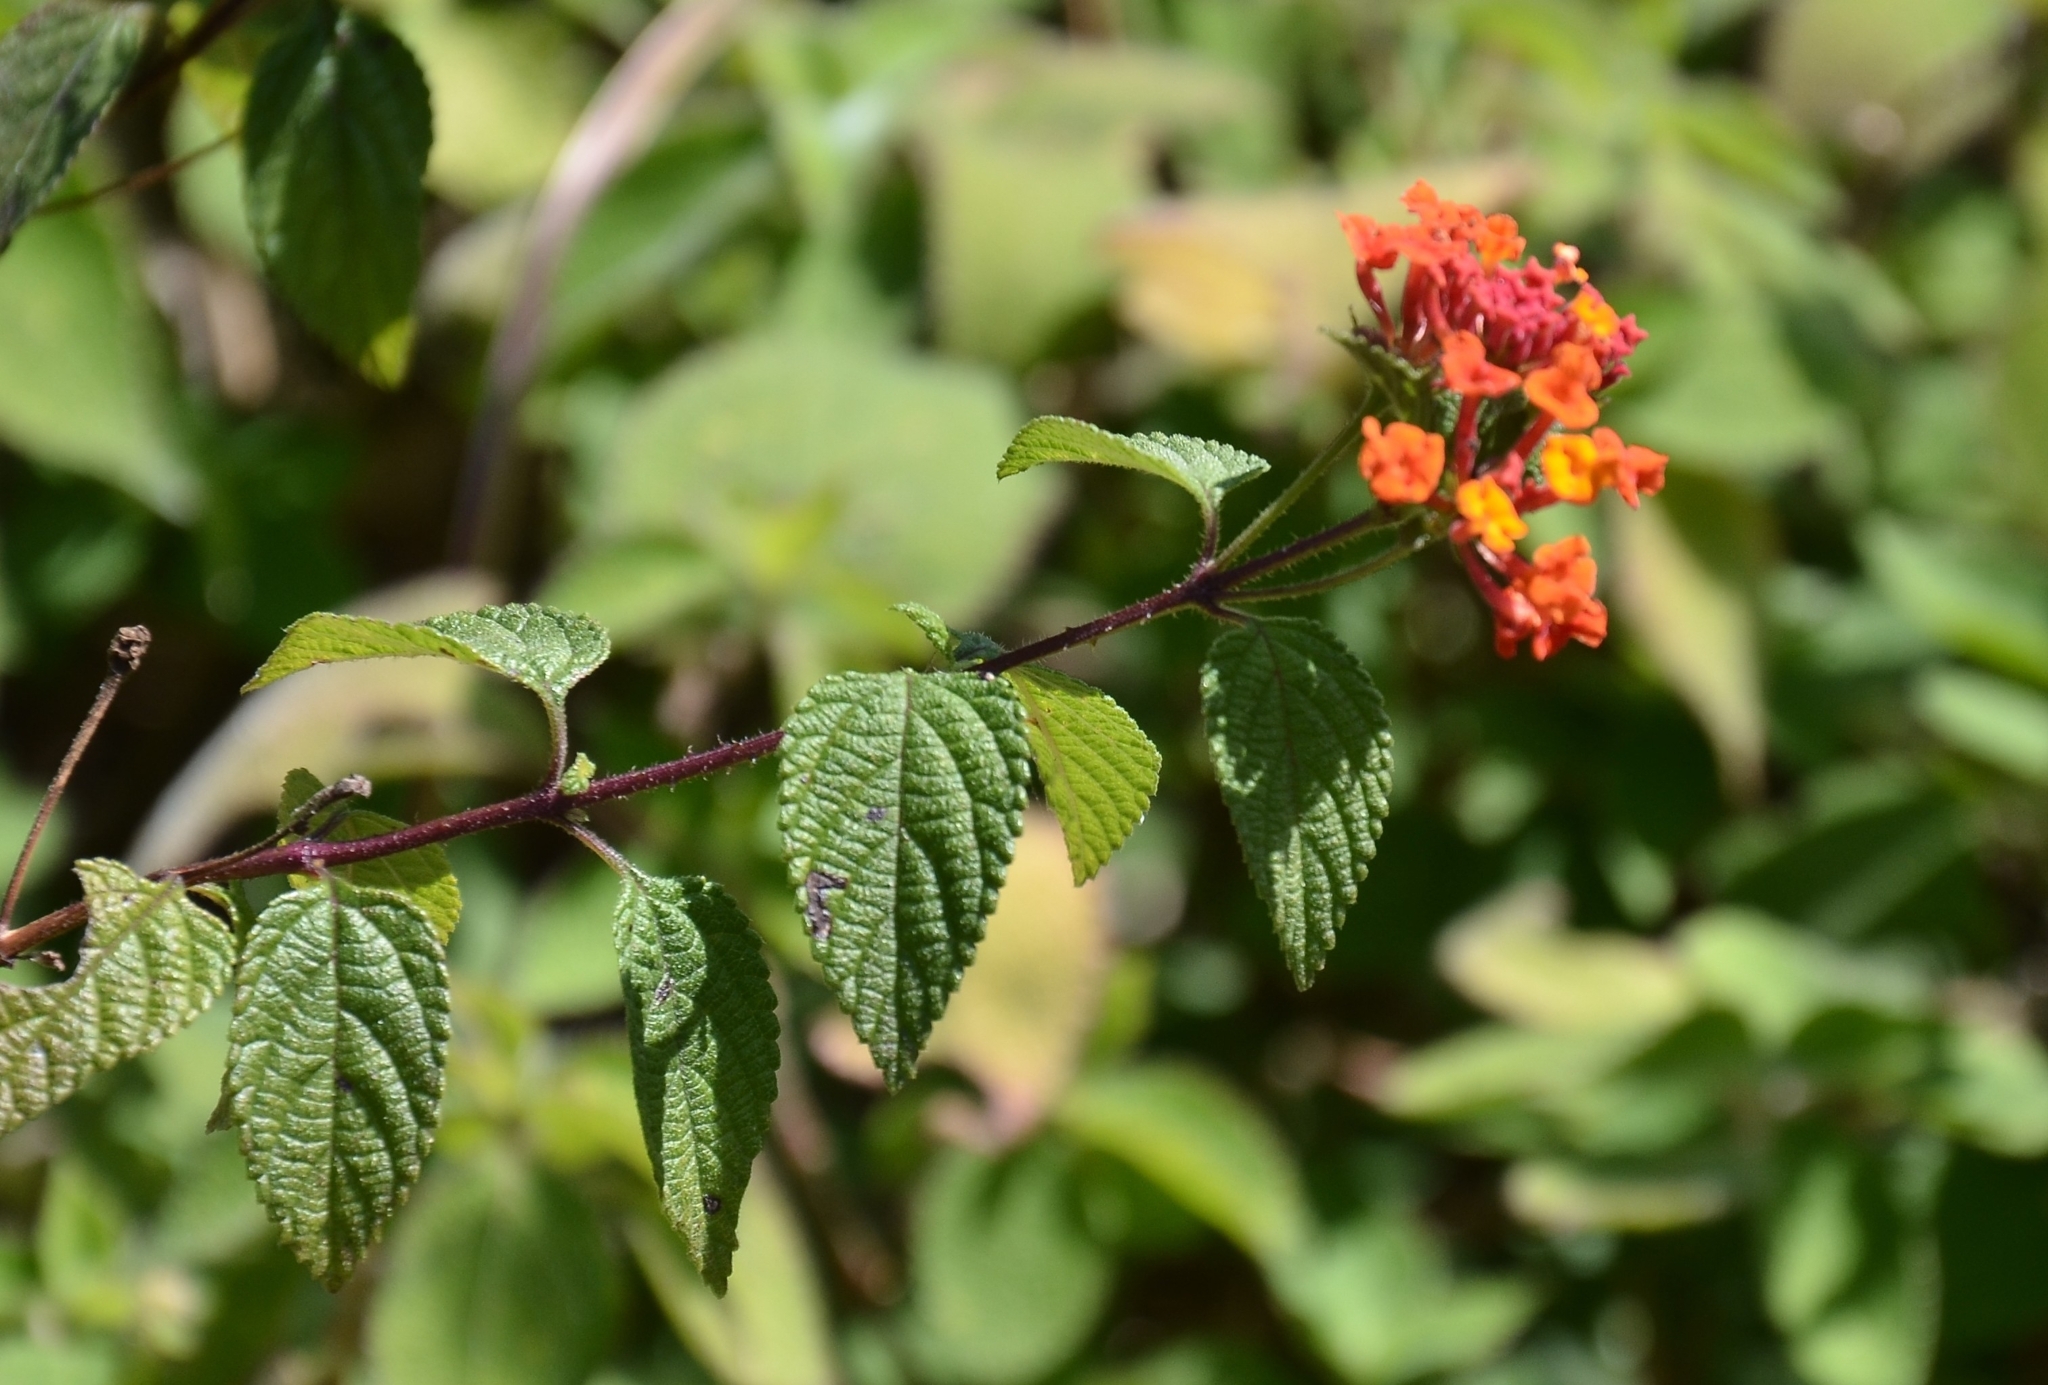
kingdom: Plantae
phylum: Tracheophyta
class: Magnoliopsida
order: Lamiales
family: Verbenaceae
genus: Lantana
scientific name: Lantana camara
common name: Lantana
